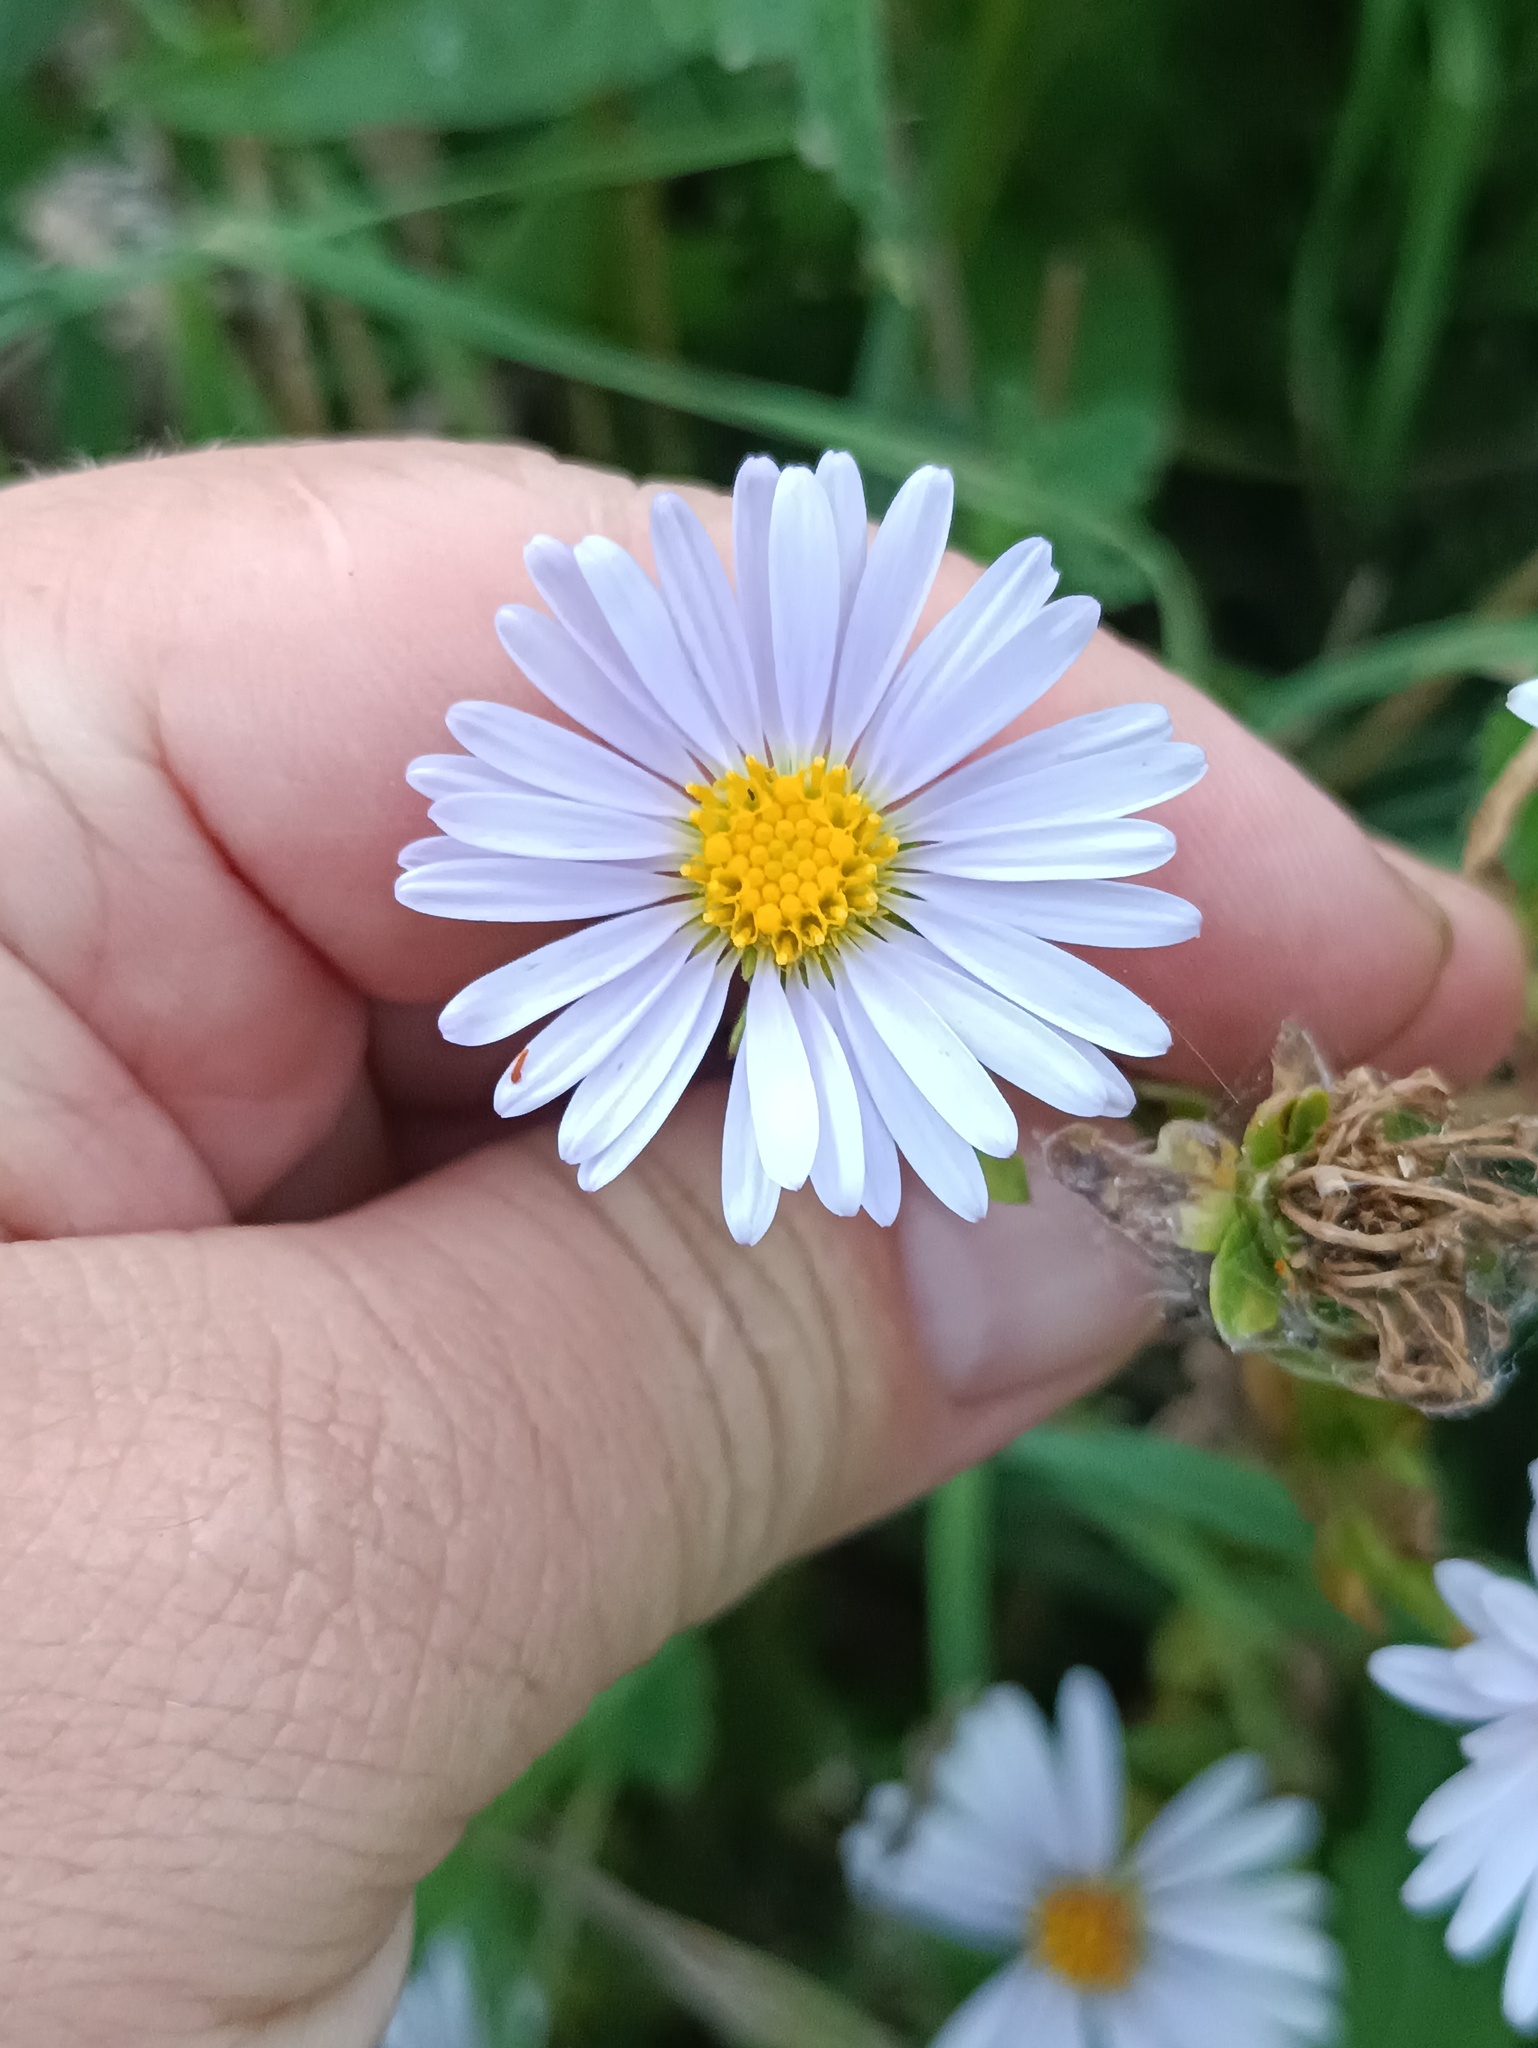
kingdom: Plantae
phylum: Tracheophyta
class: Magnoliopsida
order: Asterales
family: Asteraceae
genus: Symphyotrichum
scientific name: Symphyotrichum novi-belgii
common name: Michaelmas daisy
